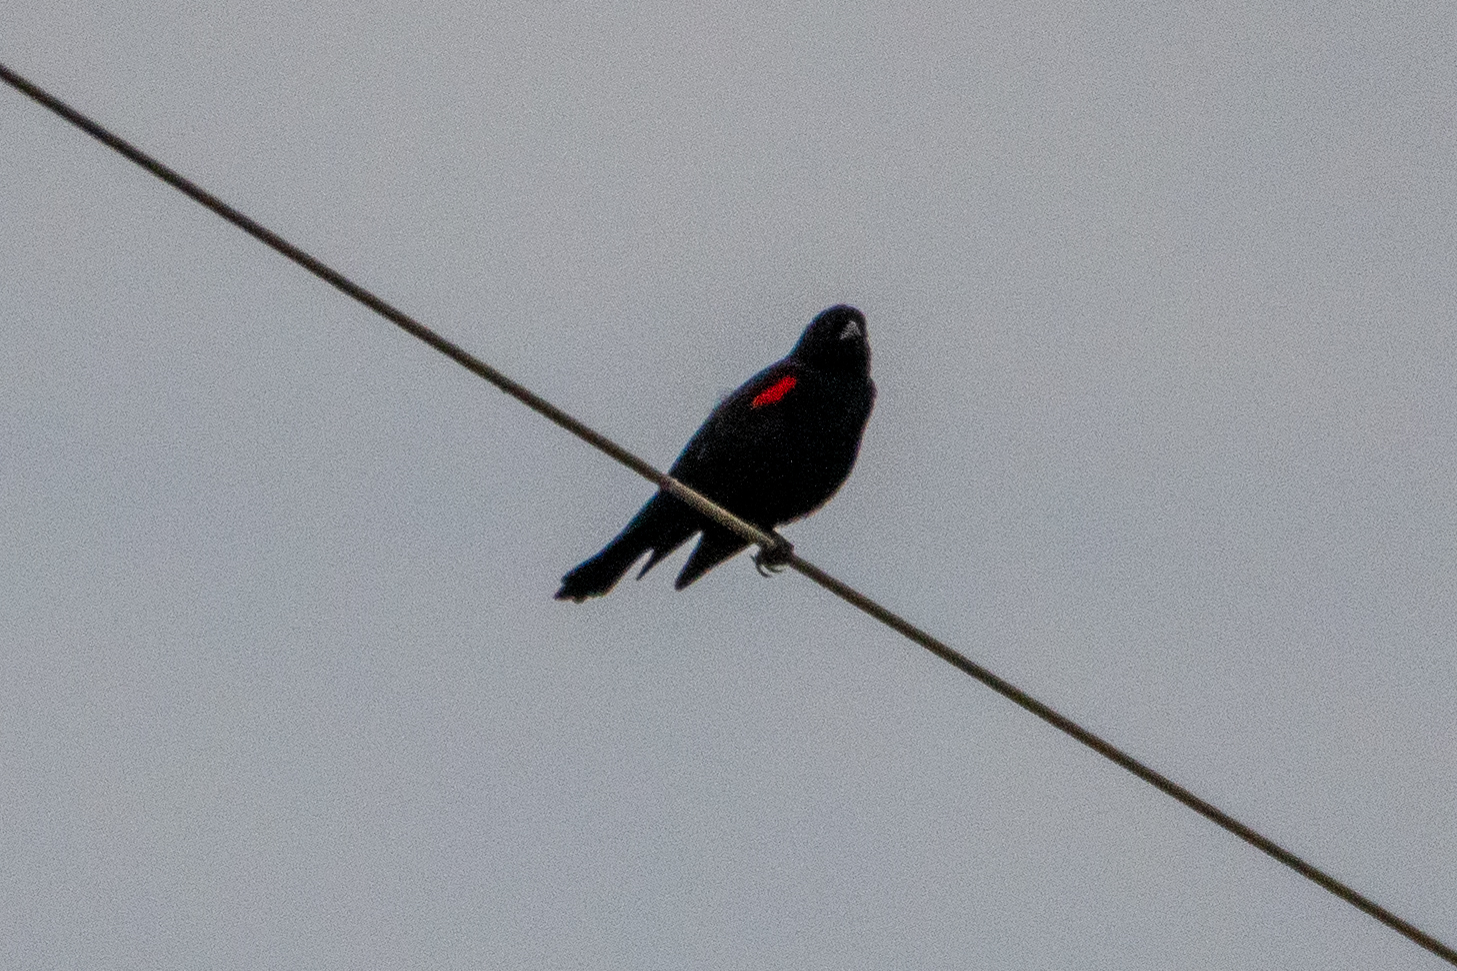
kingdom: Animalia
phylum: Chordata
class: Aves
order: Passeriformes
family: Icteridae
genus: Agelaius
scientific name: Agelaius phoeniceus
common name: Red-winged blackbird
